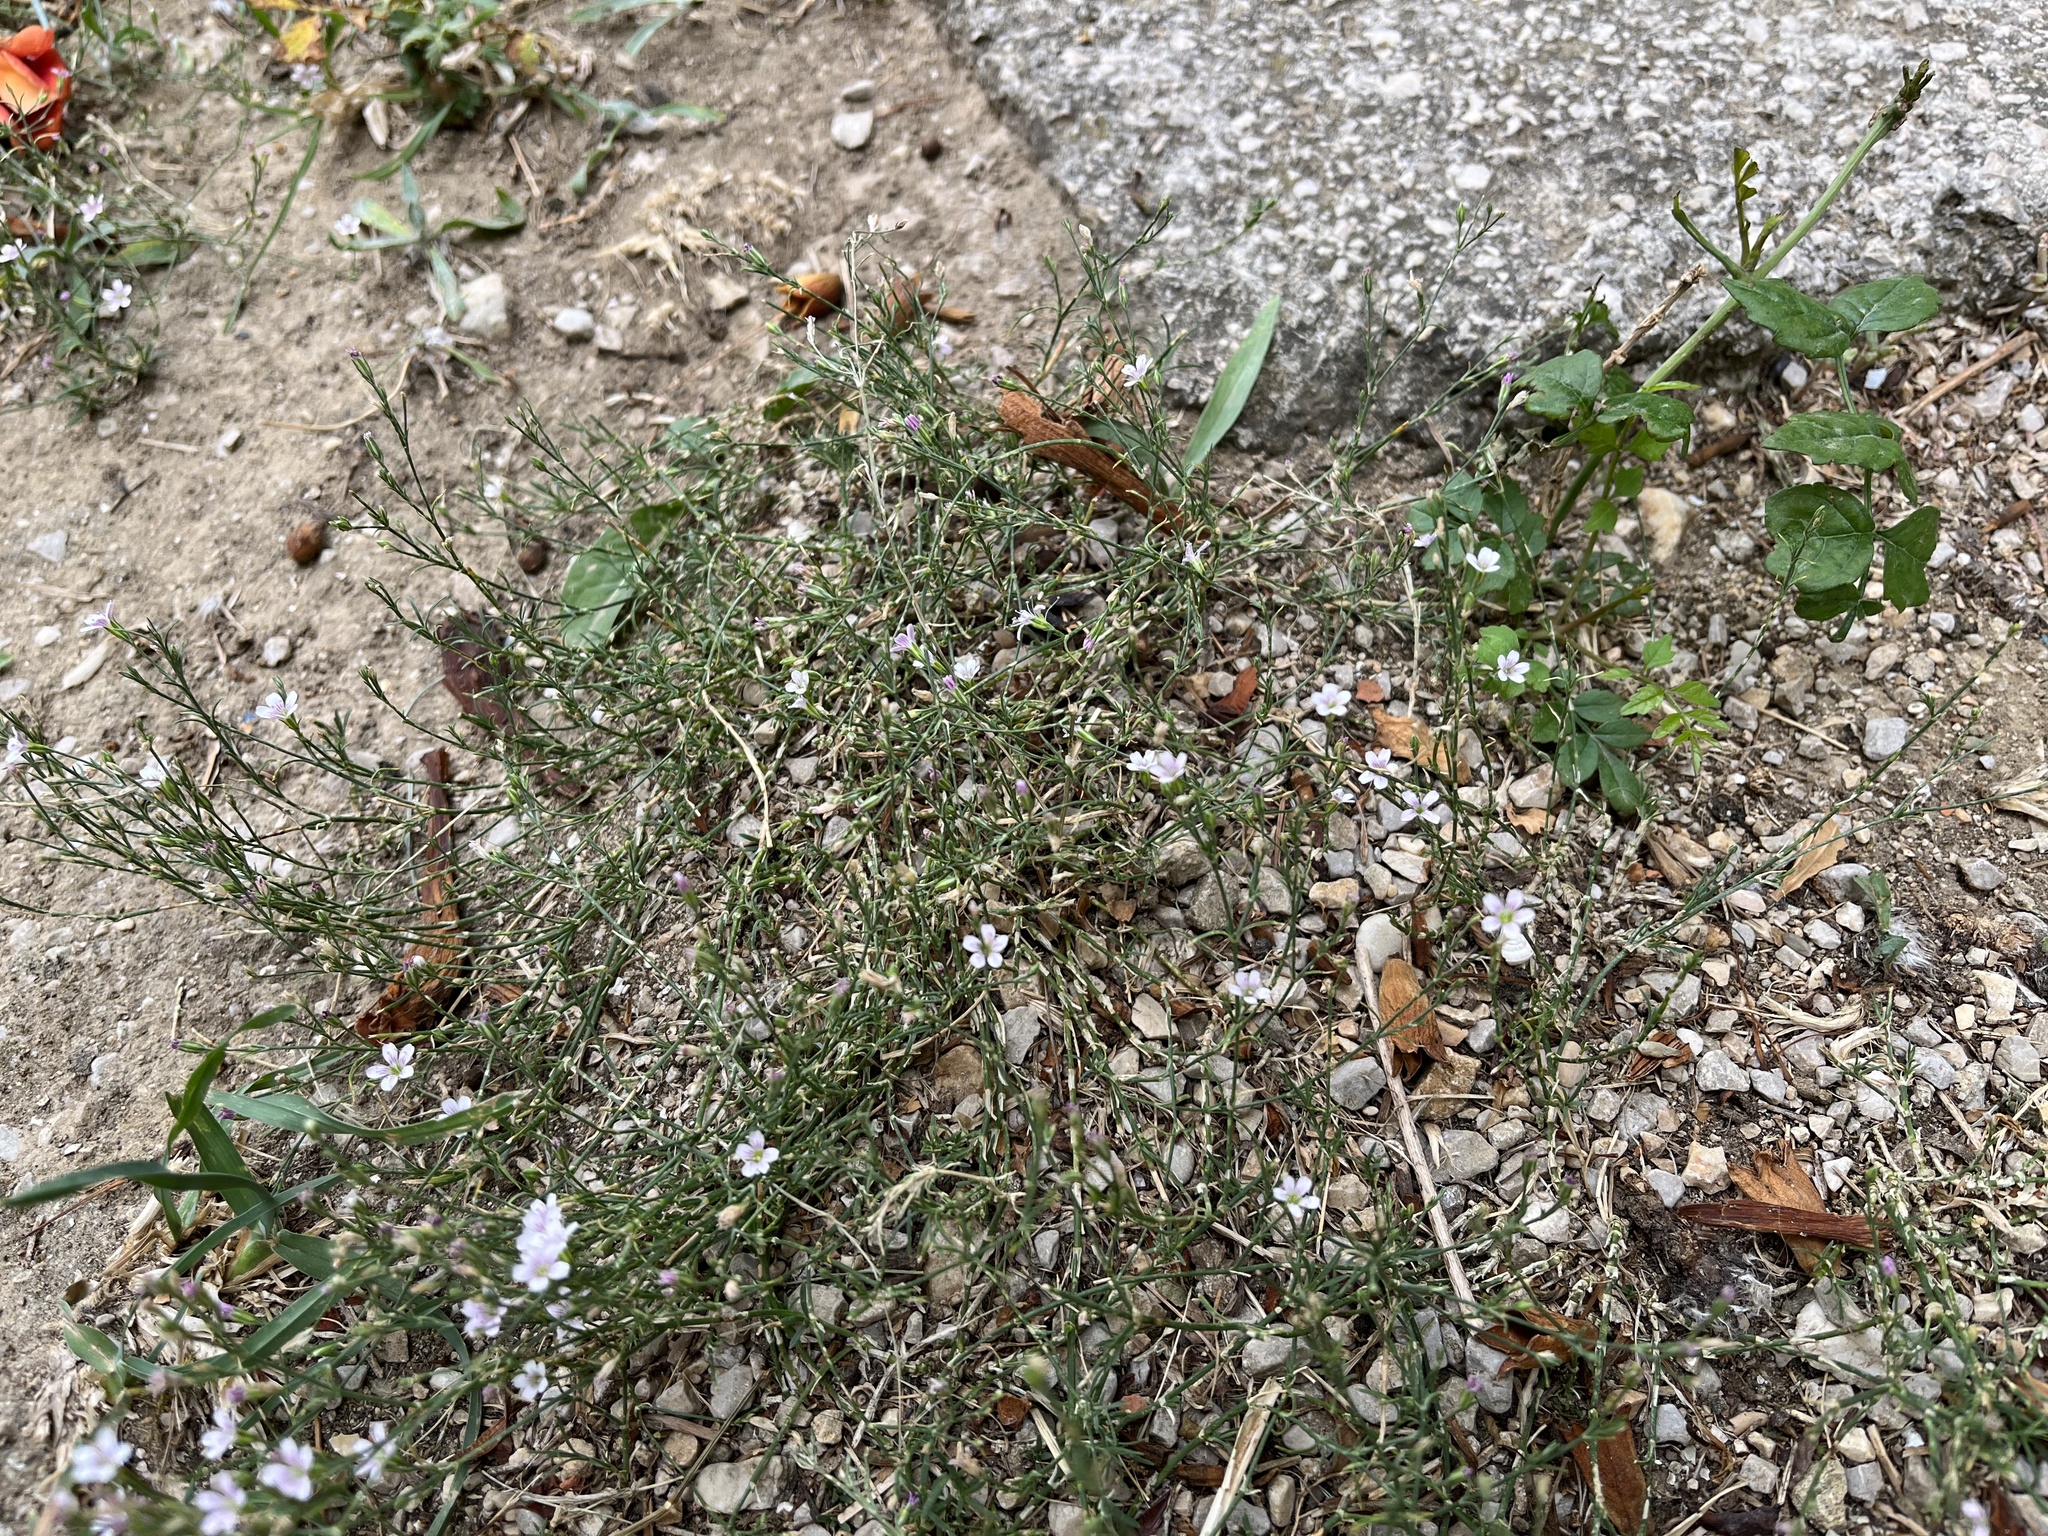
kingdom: Plantae
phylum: Tracheophyta
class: Magnoliopsida
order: Caryophyllales
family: Caryophyllaceae
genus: Petrorhagia
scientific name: Petrorhagia saxifraga
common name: Tunicflower
